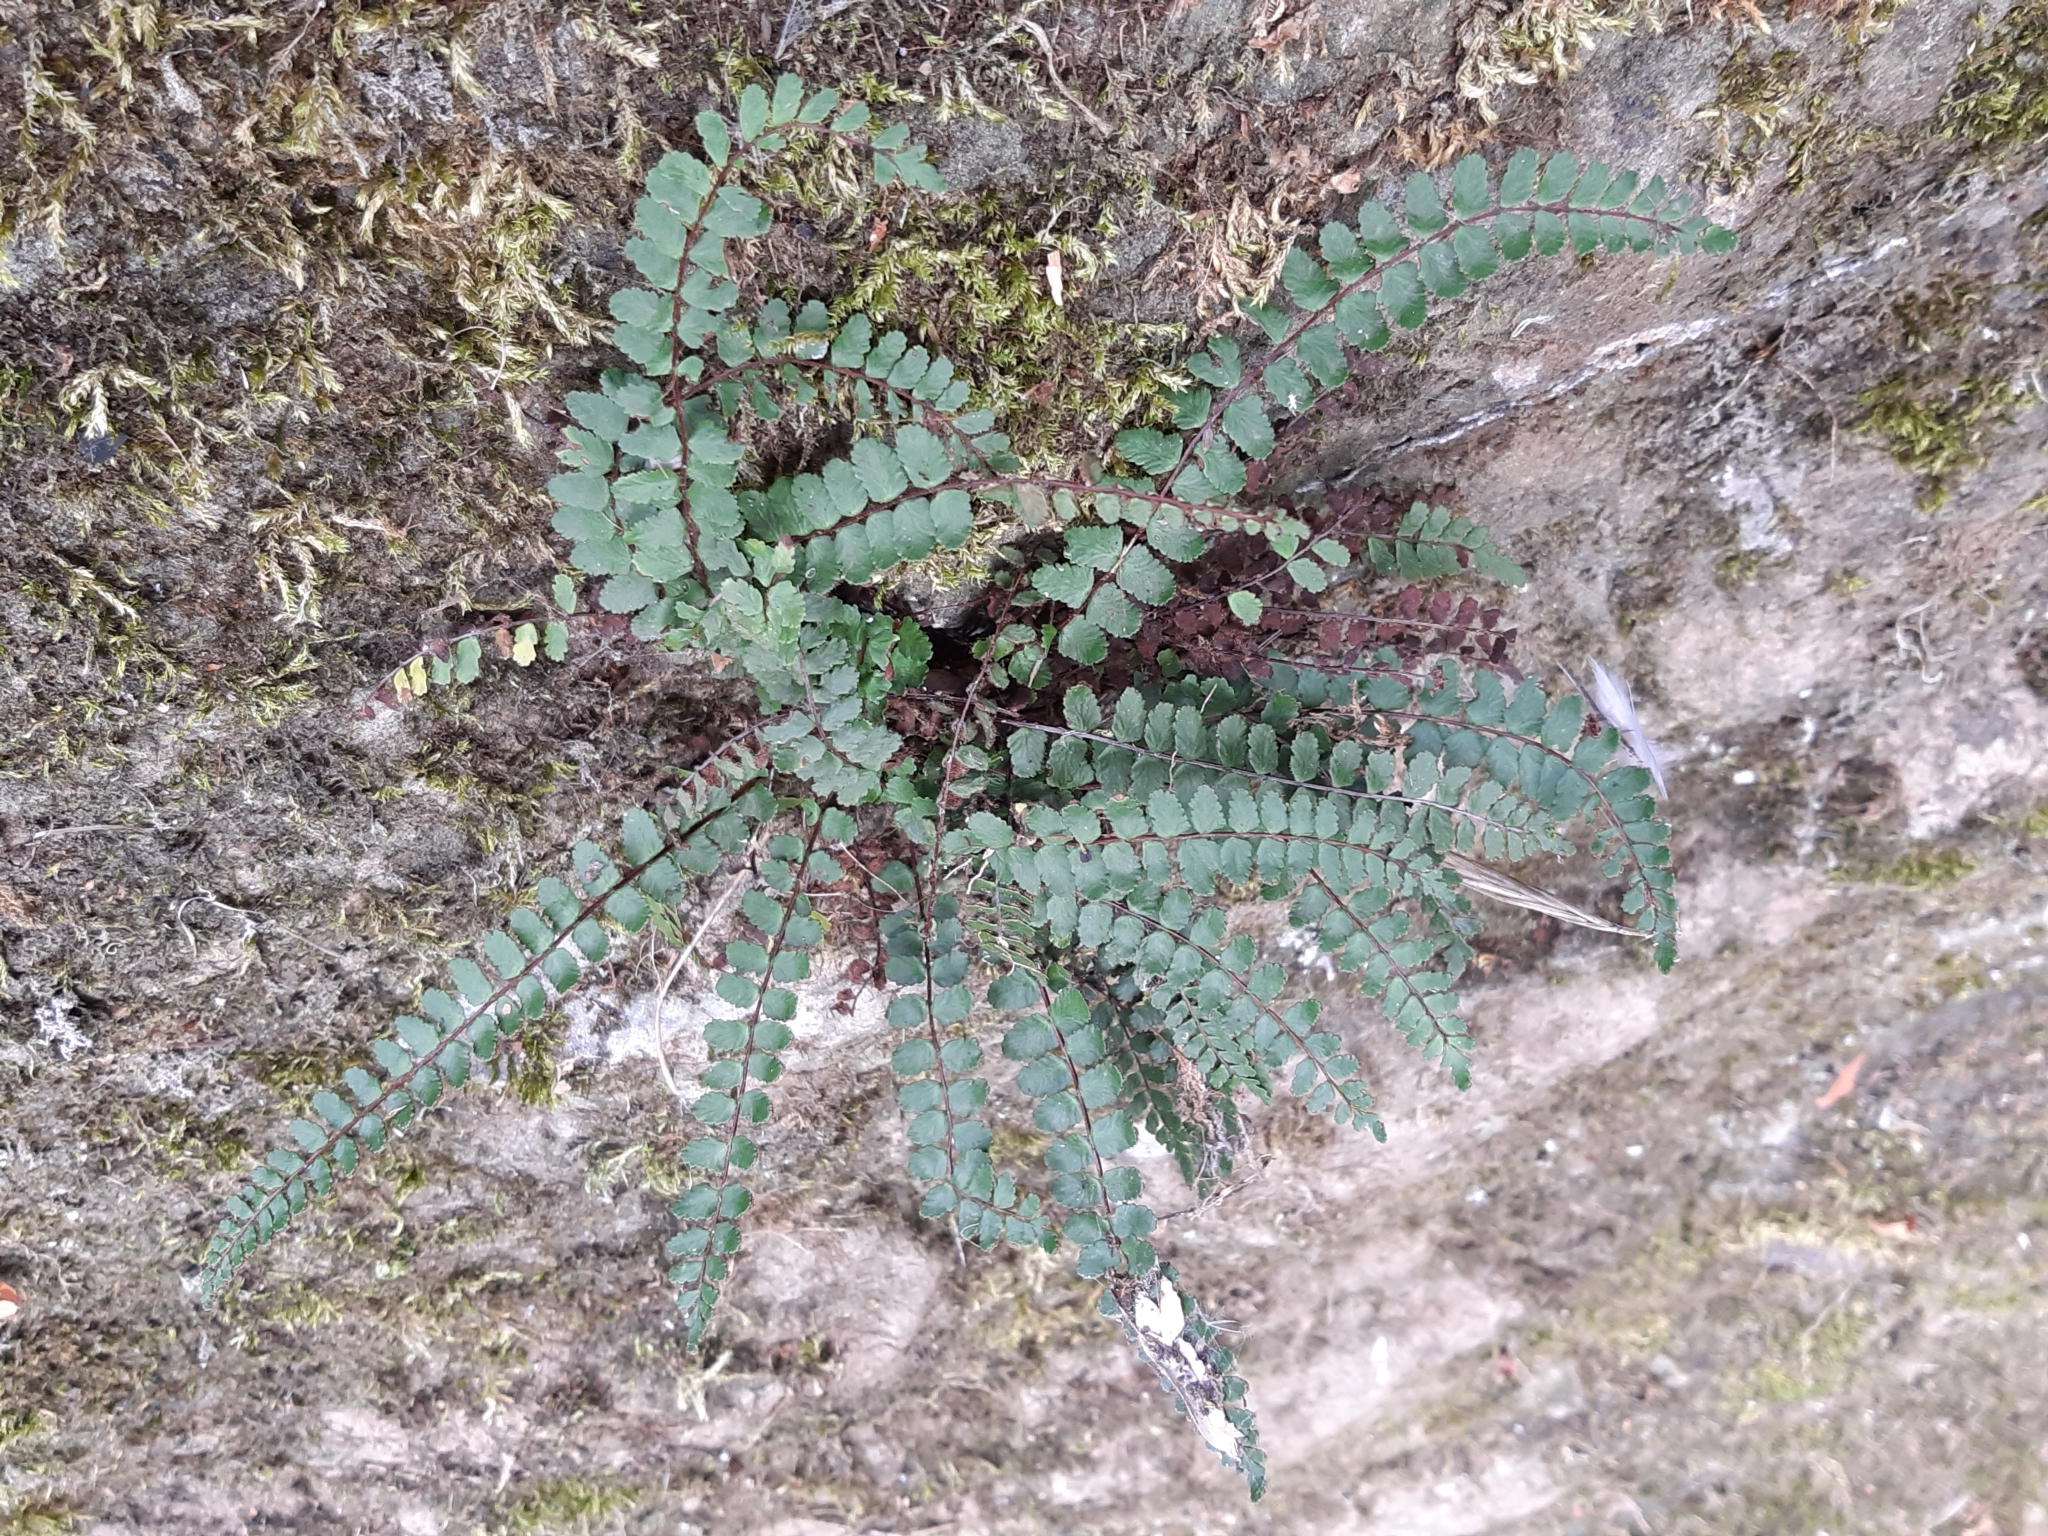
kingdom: Plantae
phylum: Tracheophyta
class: Polypodiopsida
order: Polypodiales
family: Aspleniaceae
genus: Asplenium
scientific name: Asplenium trichomanes
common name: Maidenhair spleenwort
